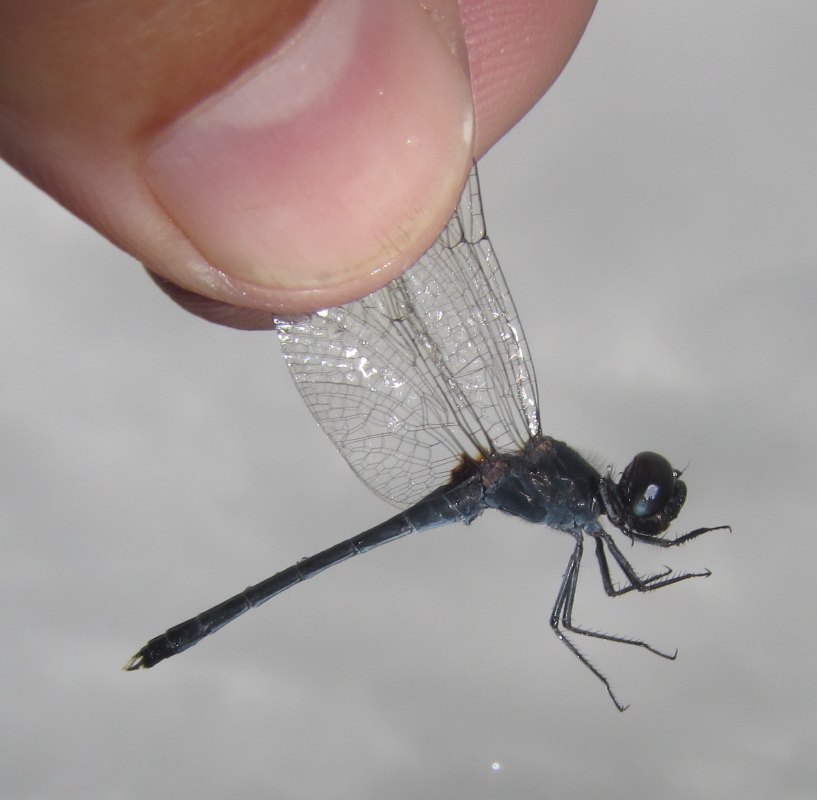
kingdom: Animalia
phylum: Arthropoda
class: Insecta
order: Odonata
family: Libellulidae
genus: Diplacodes
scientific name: Diplacodes lefebvrii
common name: Black percher
